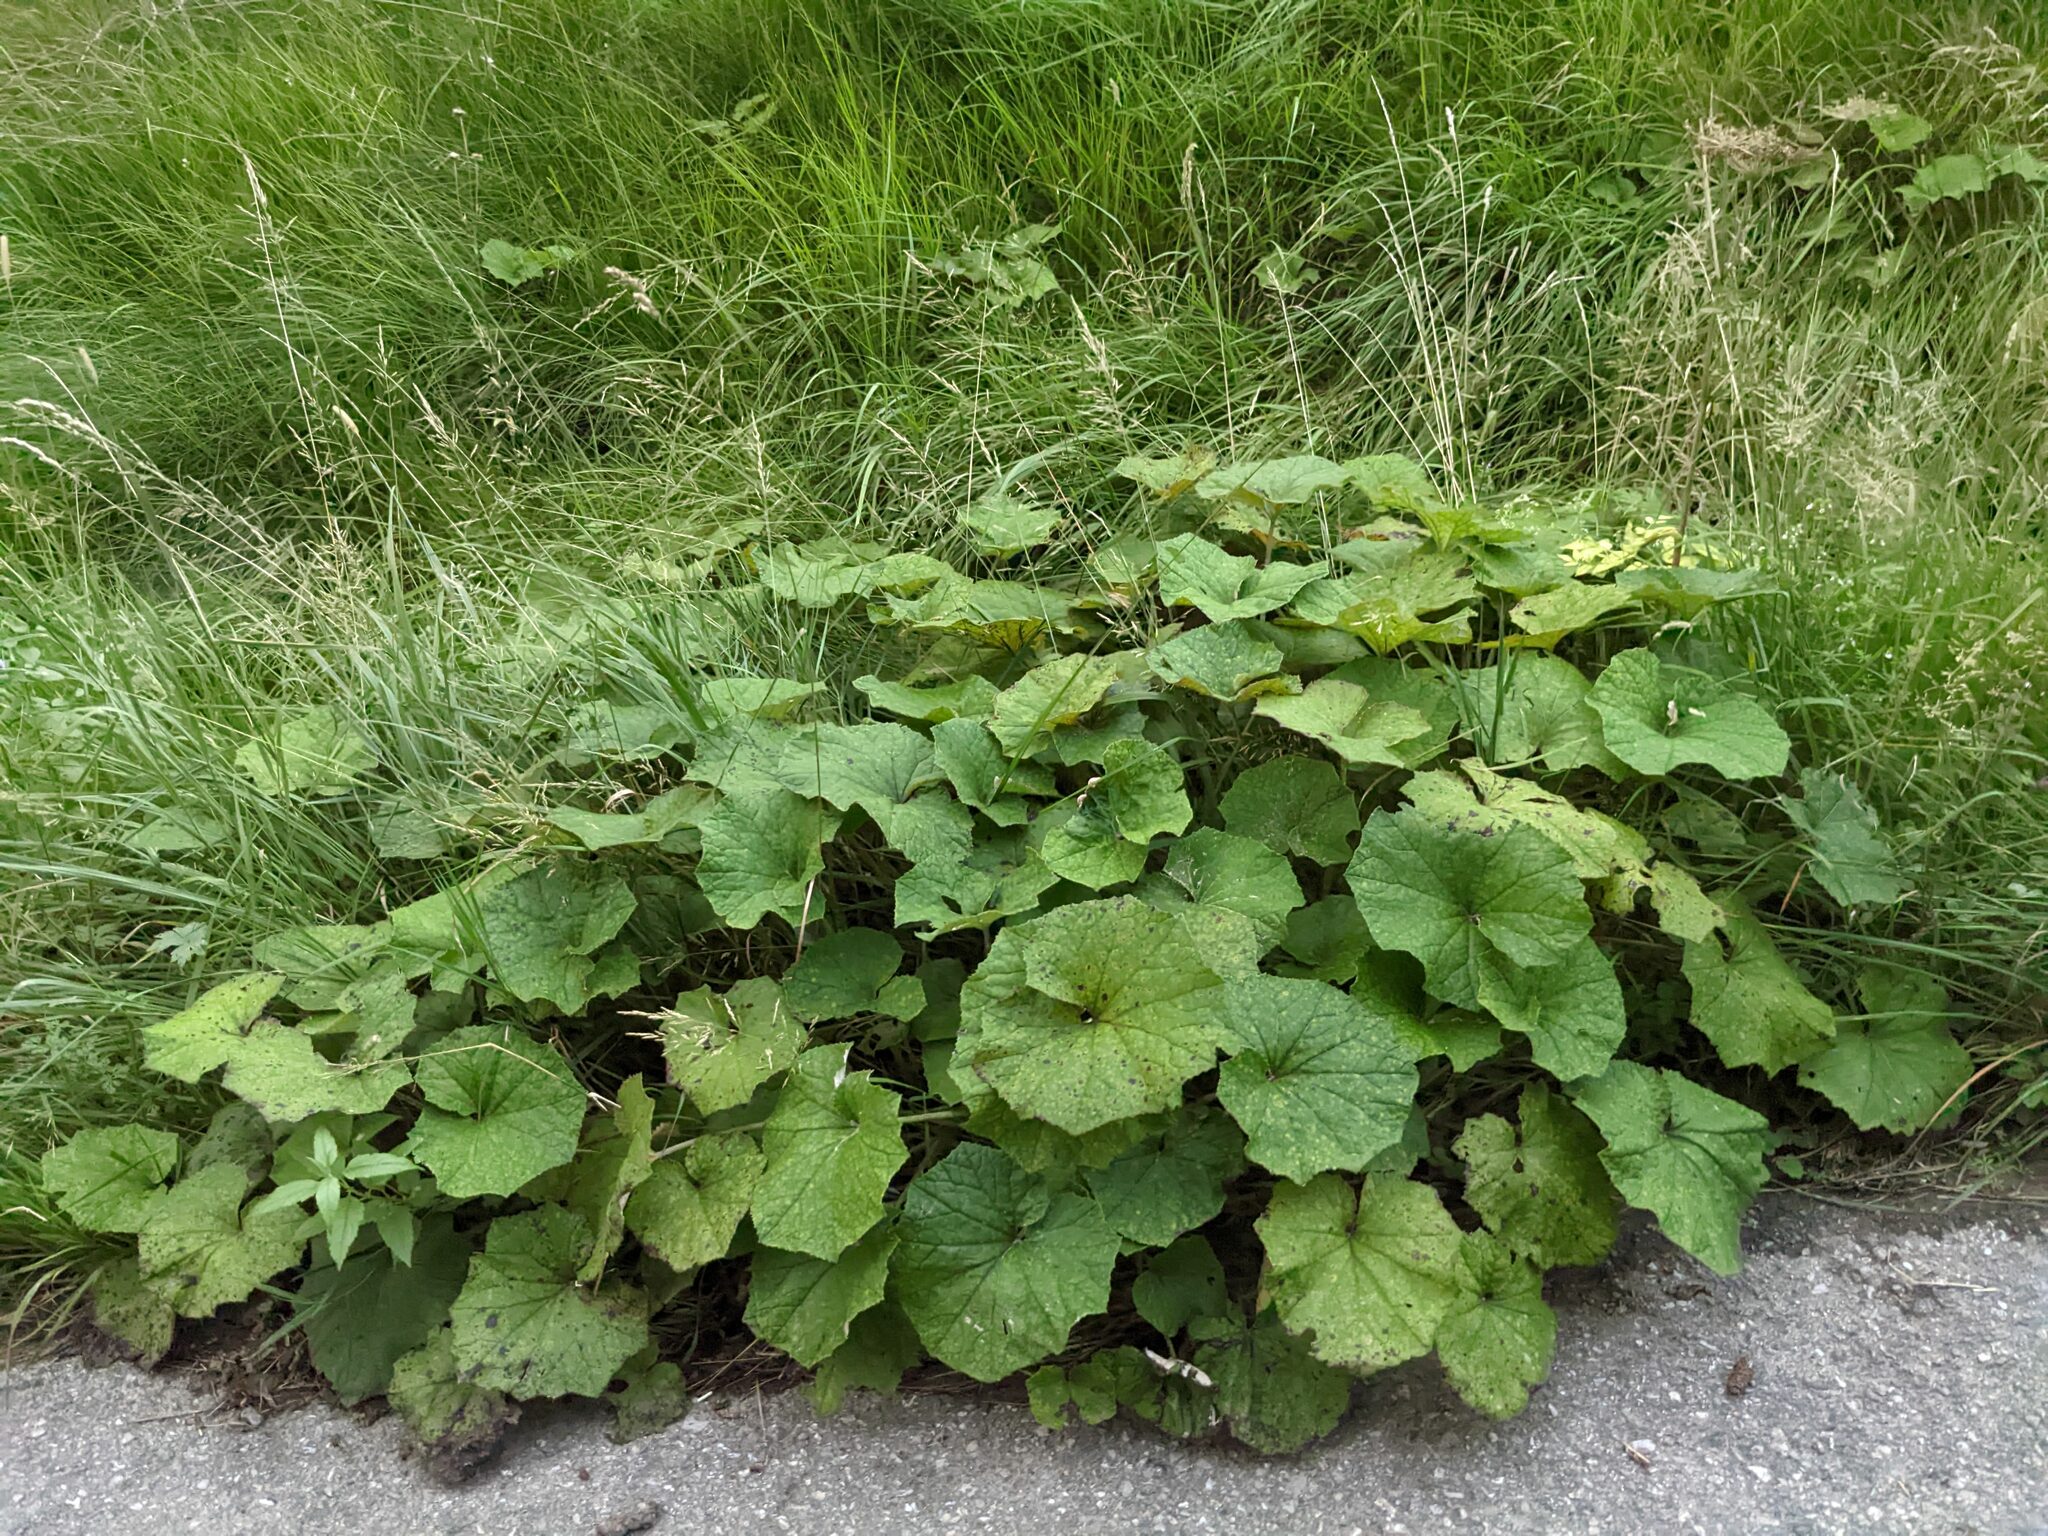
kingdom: Plantae
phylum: Tracheophyta
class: Magnoliopsida
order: Asterales
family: Asteraceae
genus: Tussilago
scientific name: Tussilago farfara
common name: Coltsfoot
